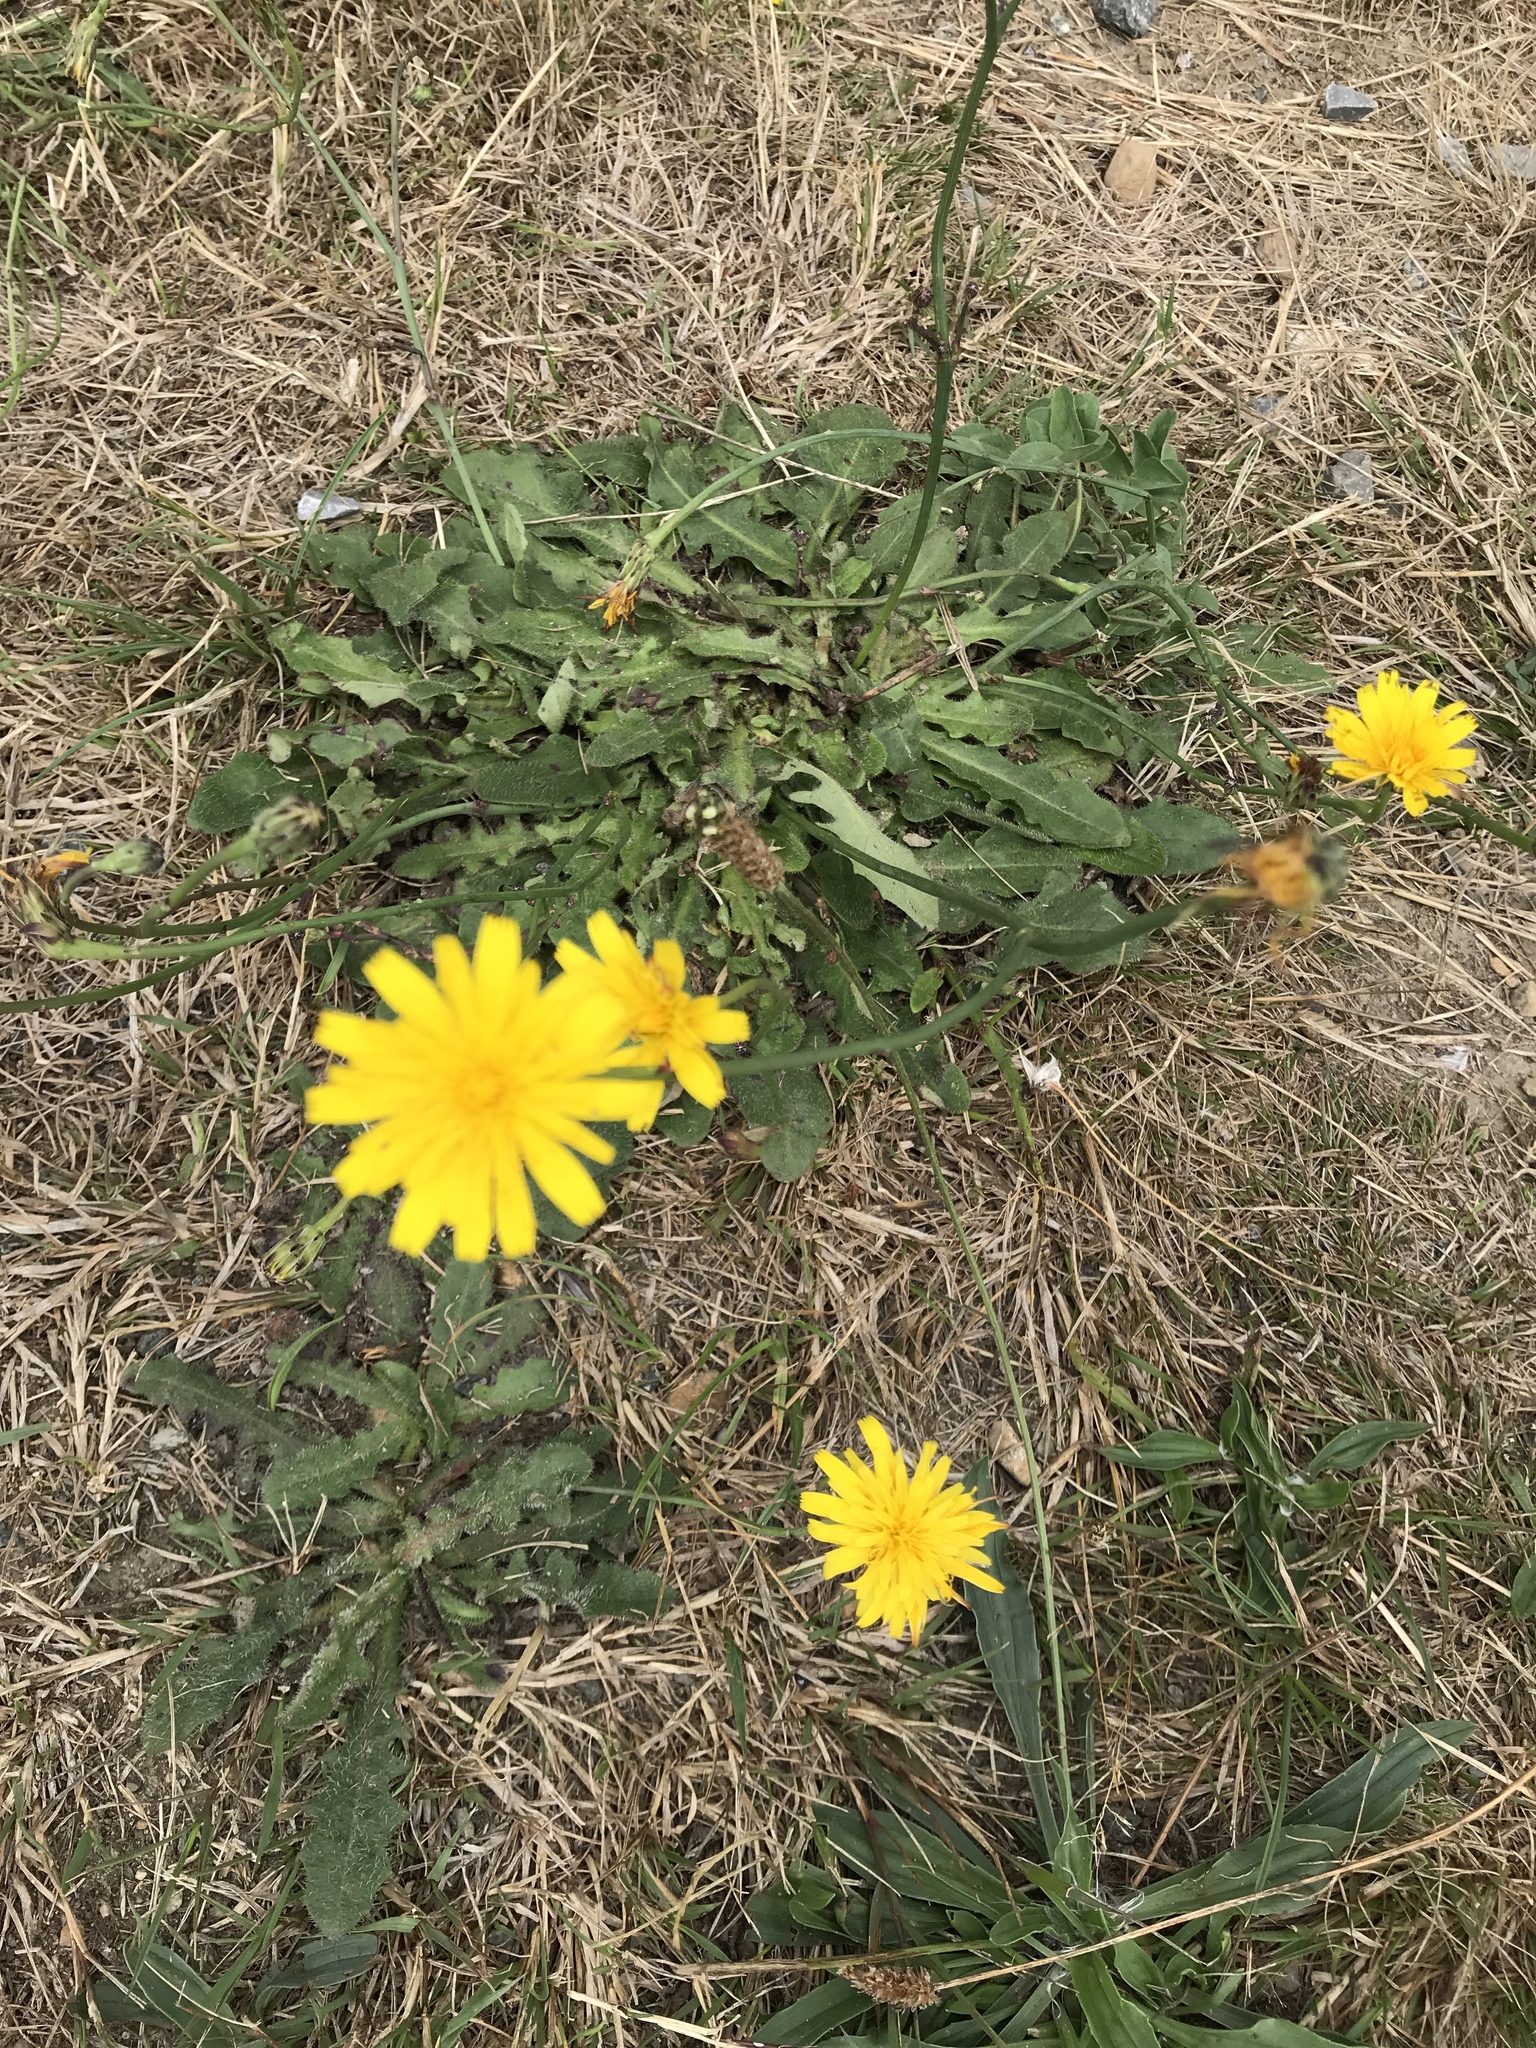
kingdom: Plantae
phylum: Tracheophyta
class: Magnoliopsida
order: Asterales
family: Asteraceae
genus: Hypochaeris
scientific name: Hypochaeris radicata
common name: Flatweed
